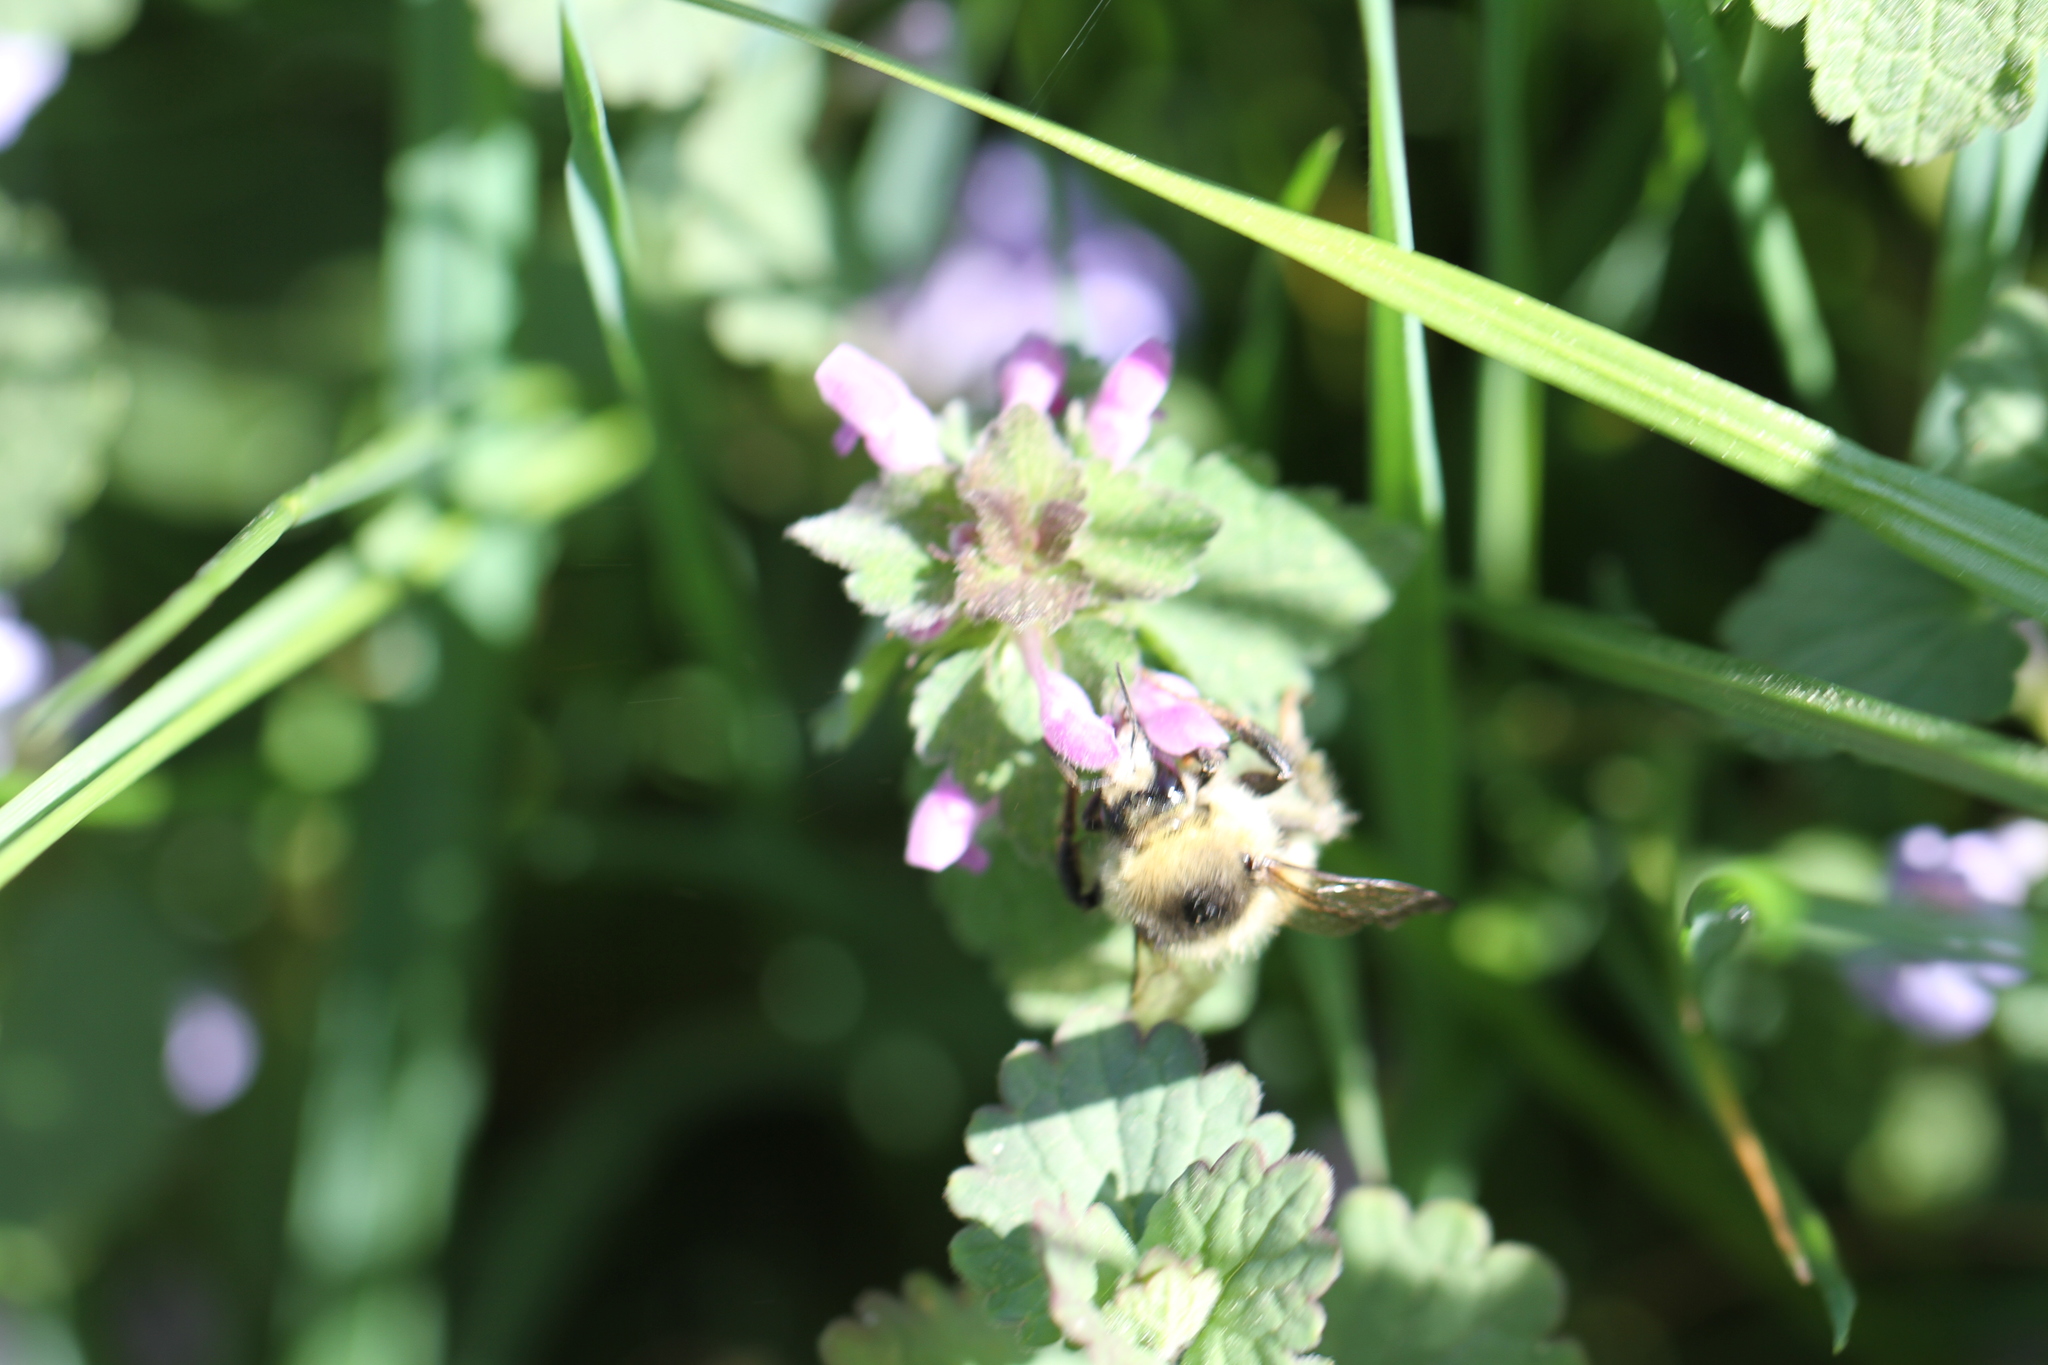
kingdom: Animalia
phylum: Arthropoda
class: Insecta
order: Hymenoptera
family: Apidae
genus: Bombus
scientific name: Bombus sylvarum
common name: Shrill carder bee
